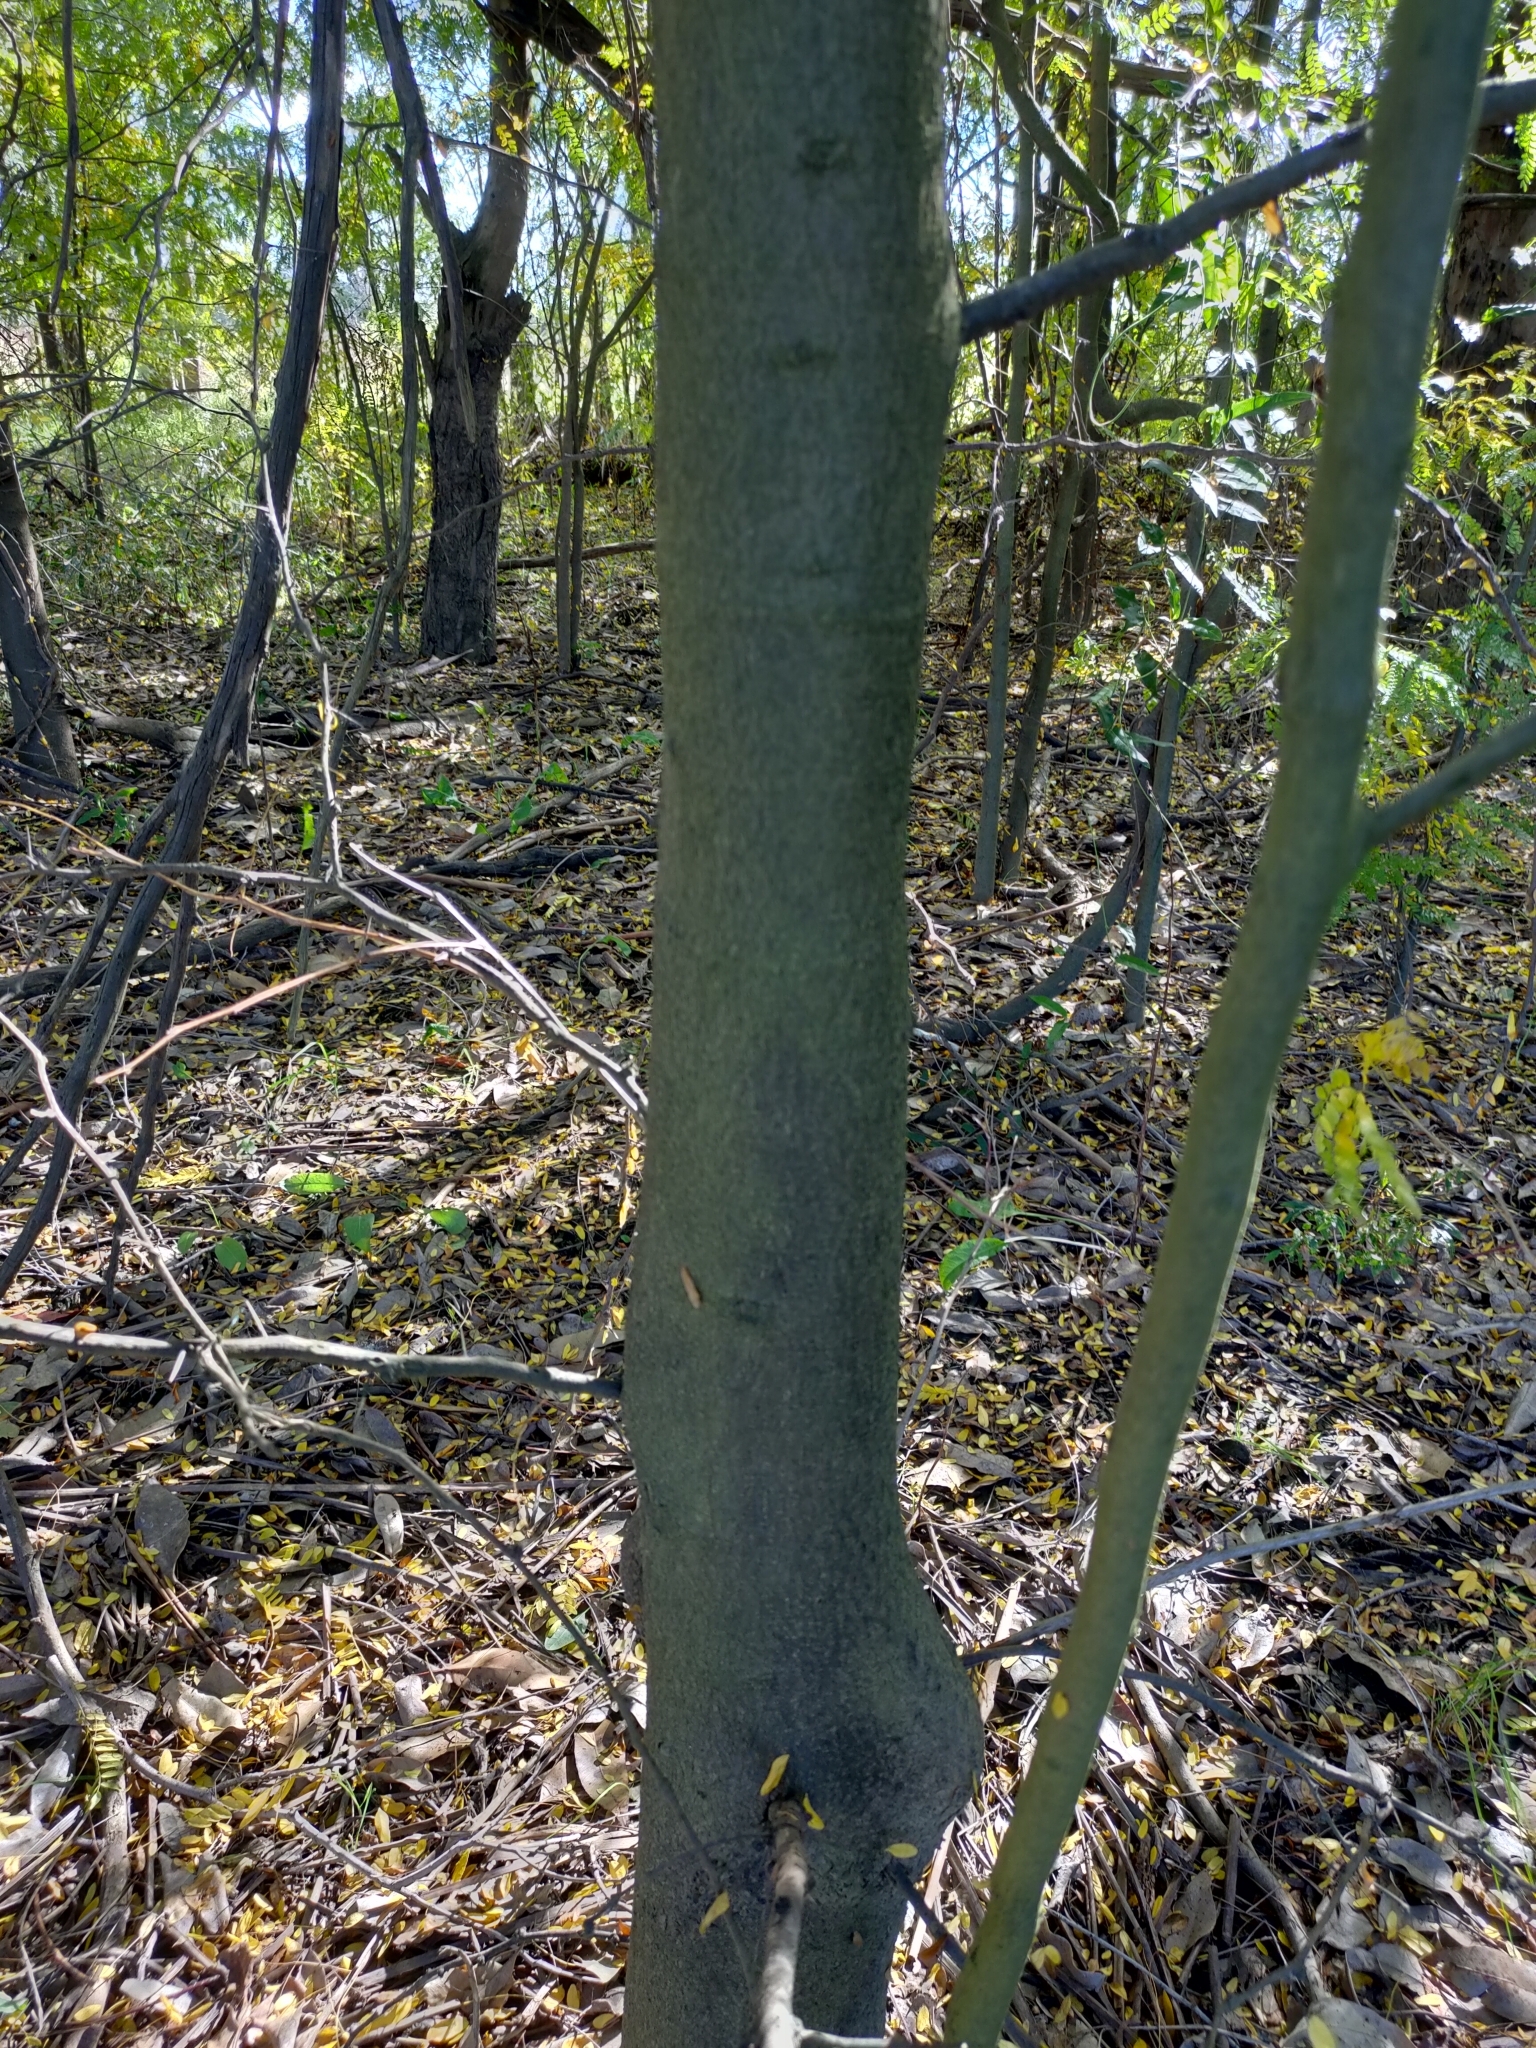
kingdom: Plantae
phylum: Tracheophyta
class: Magnoliopsida
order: Fabales
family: Fabaceae
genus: Gleditsia
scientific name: Gleditsia triacanthos
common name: Common honeylocust
